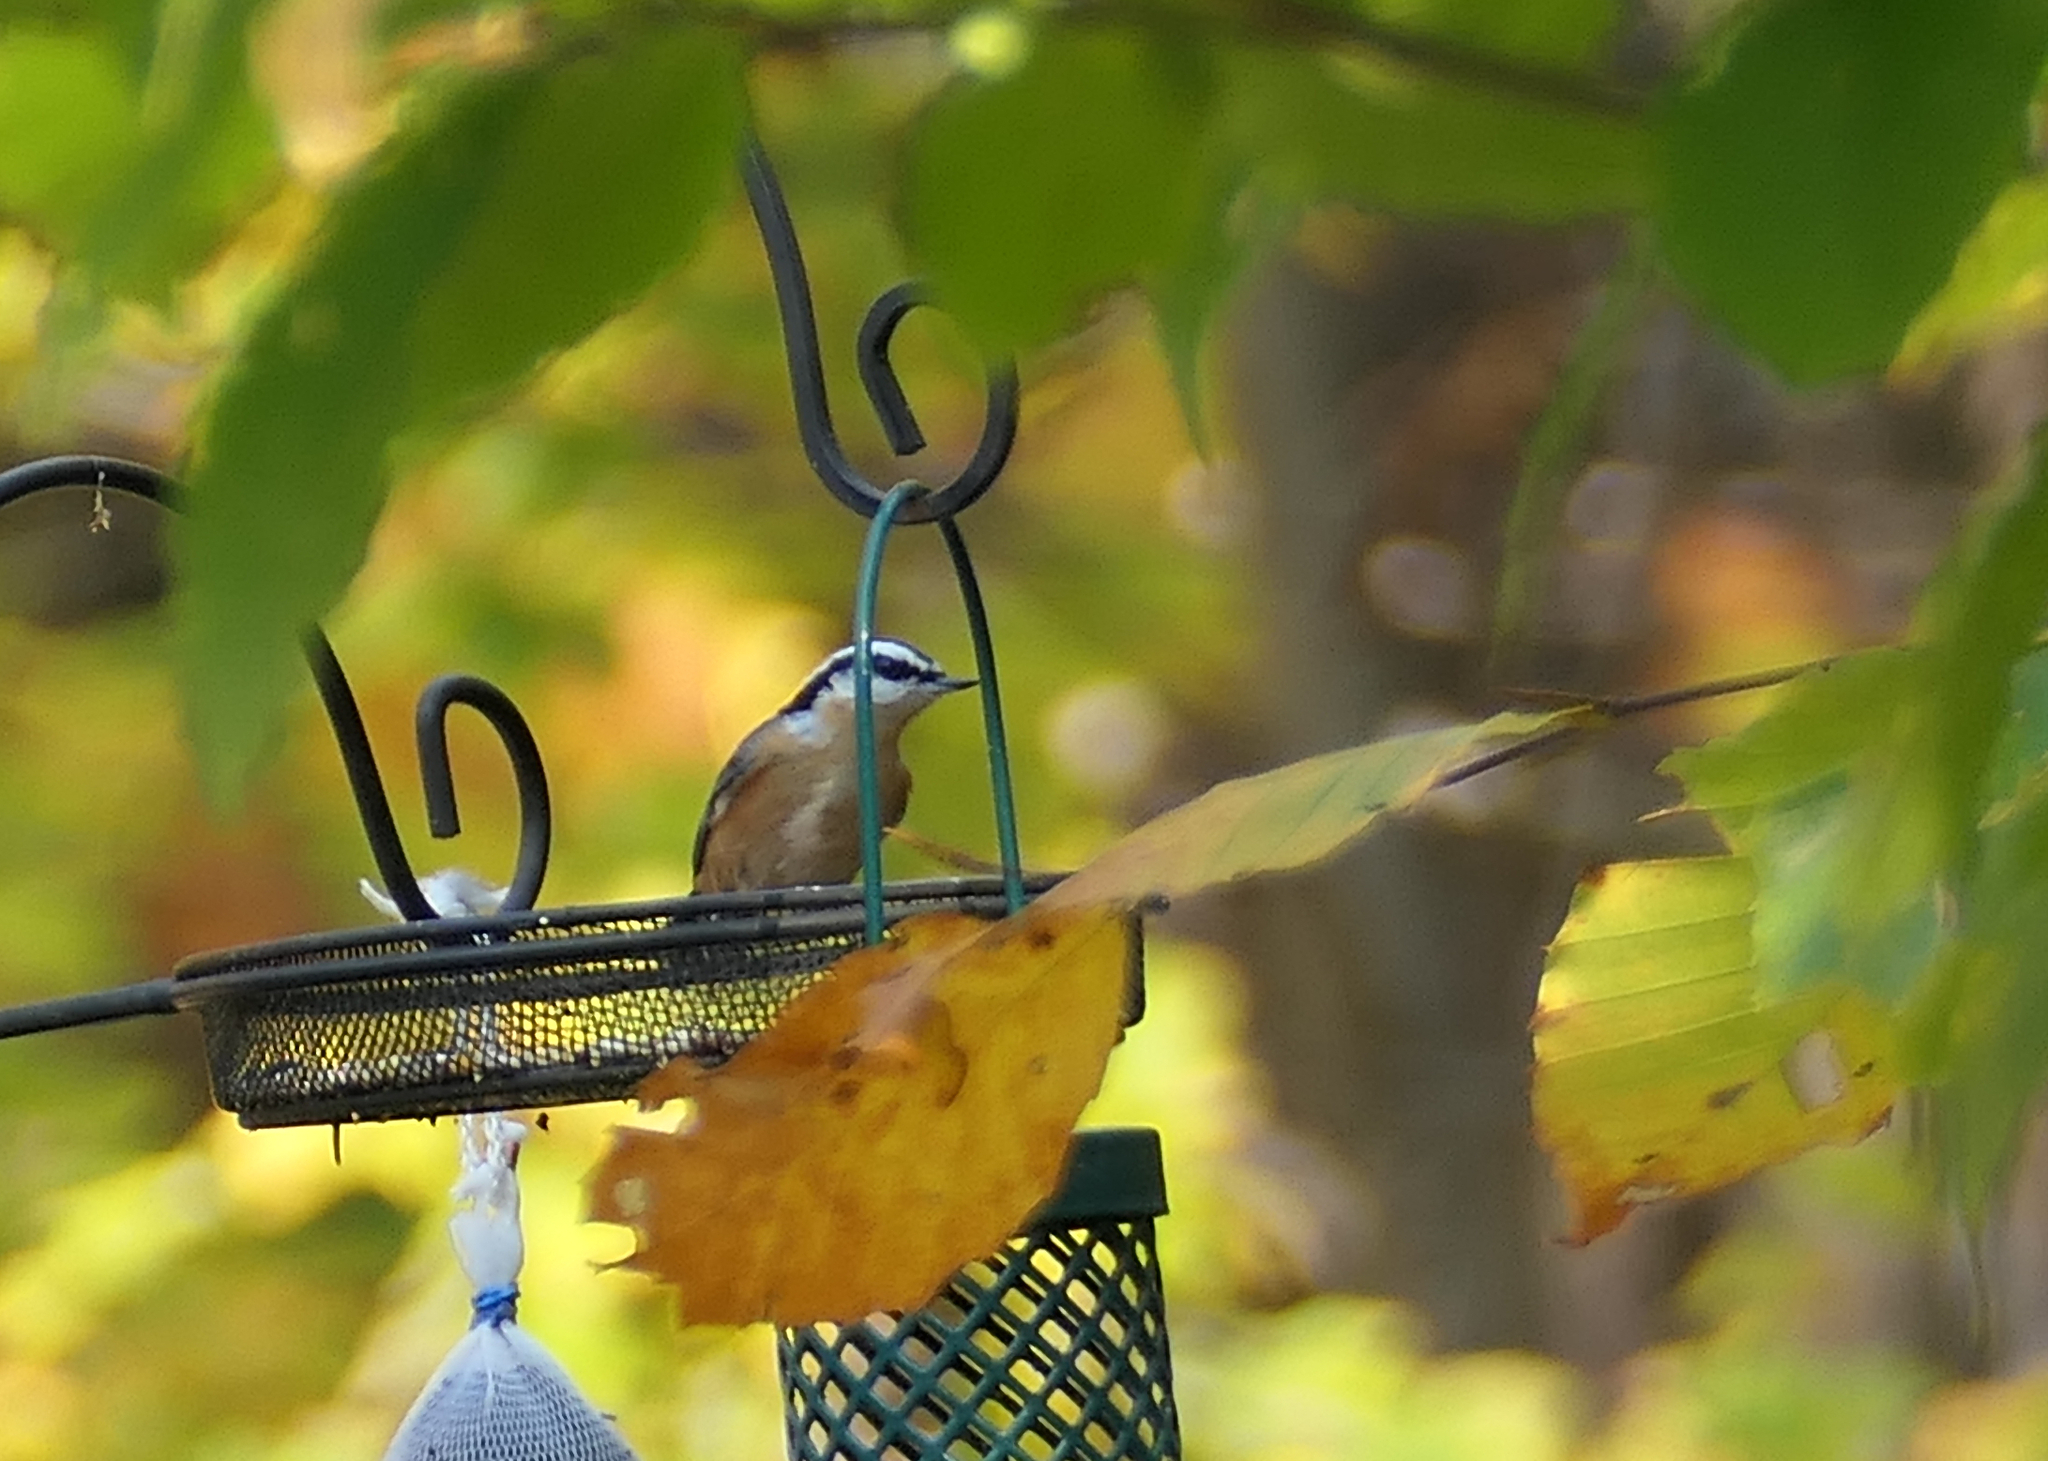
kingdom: Animalia
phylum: Chordata
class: Aves
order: Passeriformes
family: Sittidae
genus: Sitta
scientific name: Sitta canadensis
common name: Red-breasted nuthatch
